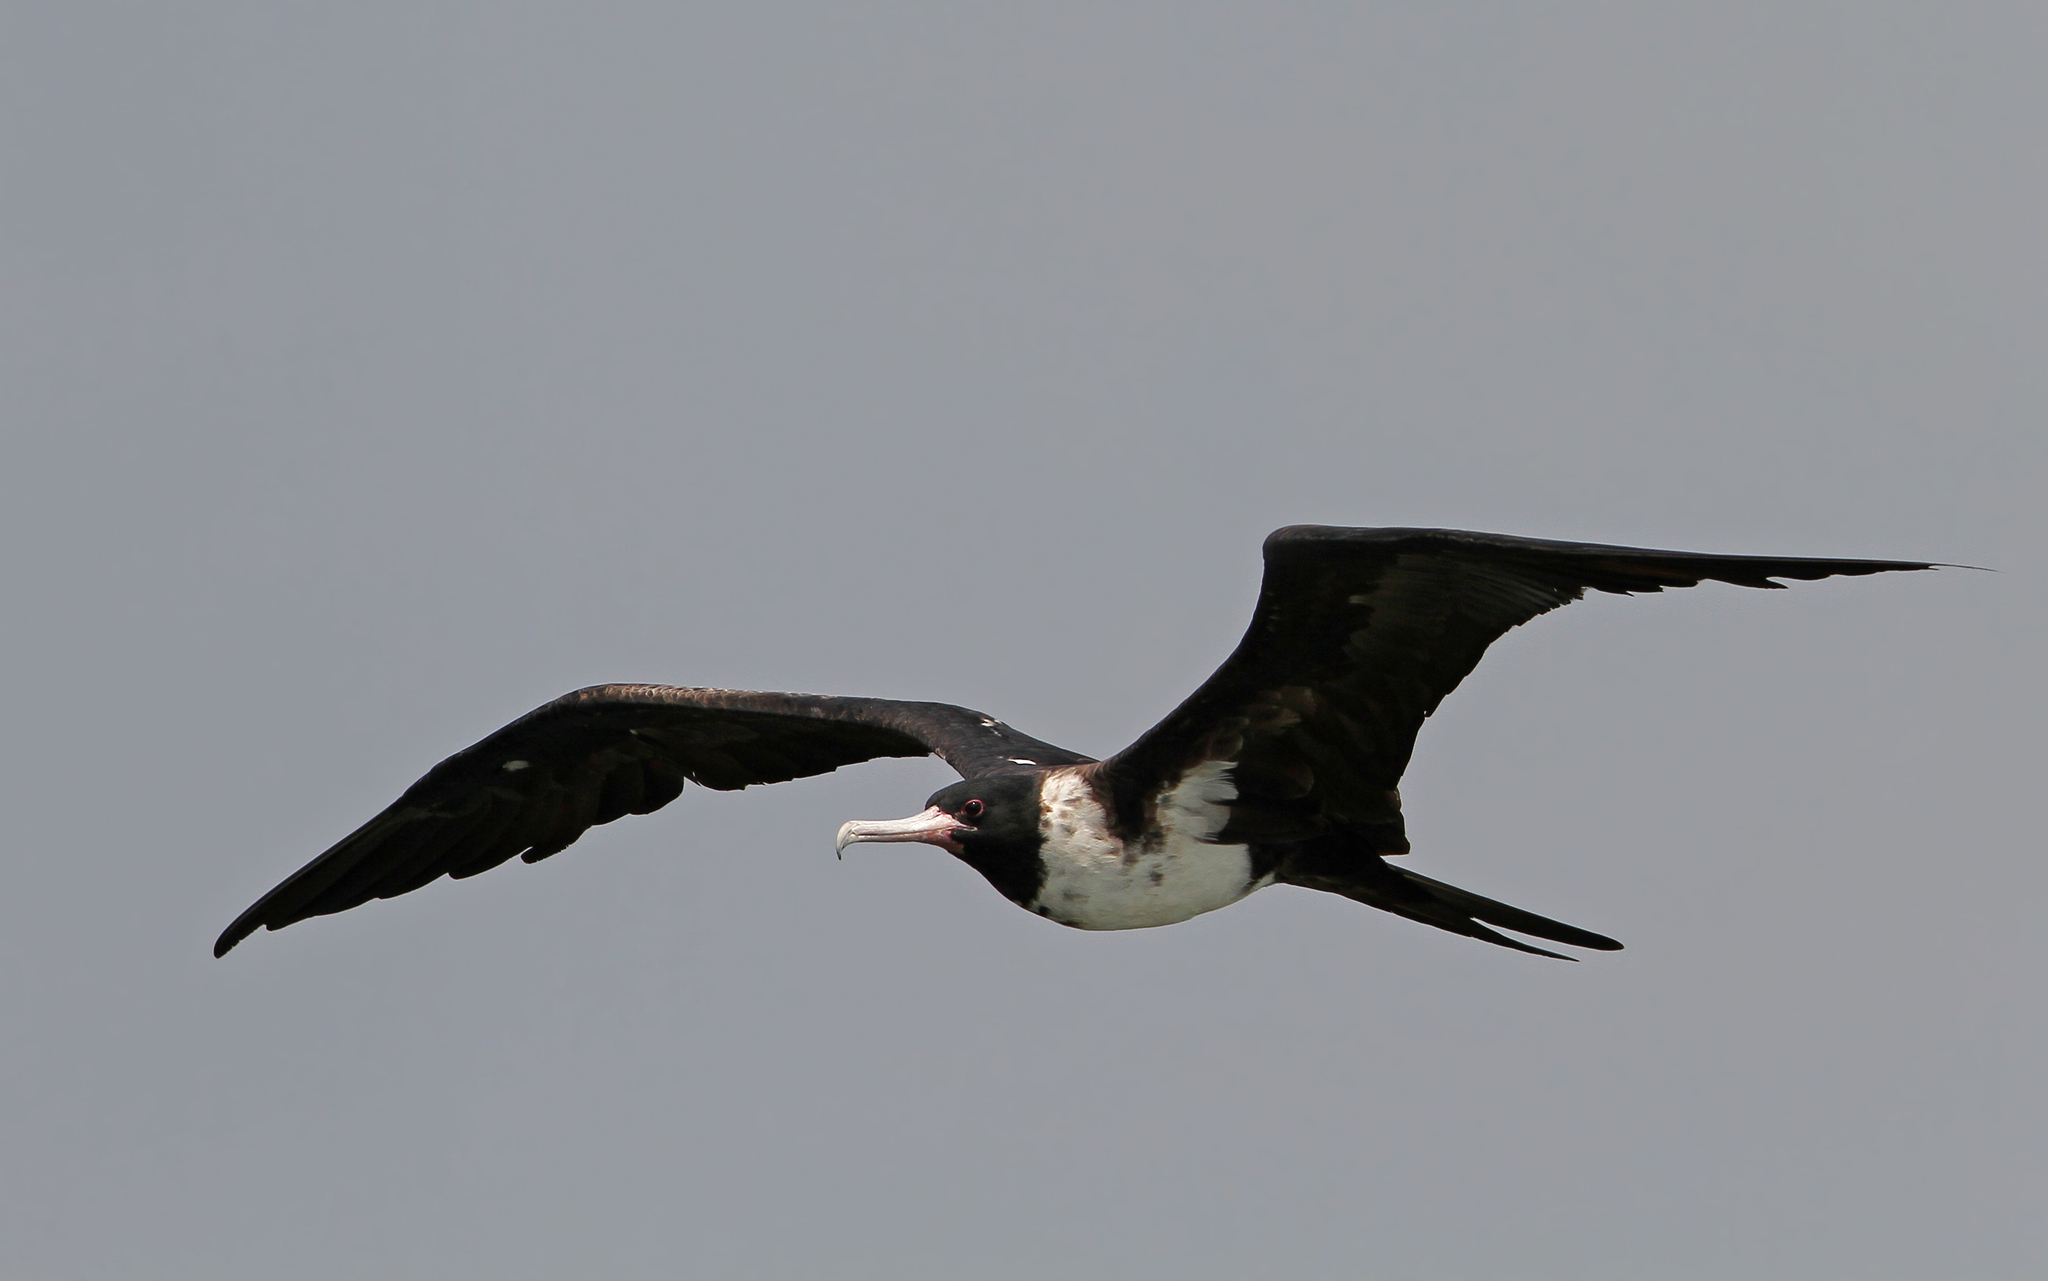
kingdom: Animalia
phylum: Chordata
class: Aves
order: Suliformes
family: Fregatidae
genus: Fregata
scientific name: Fregata andrewsi
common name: Christmas frigatebird
